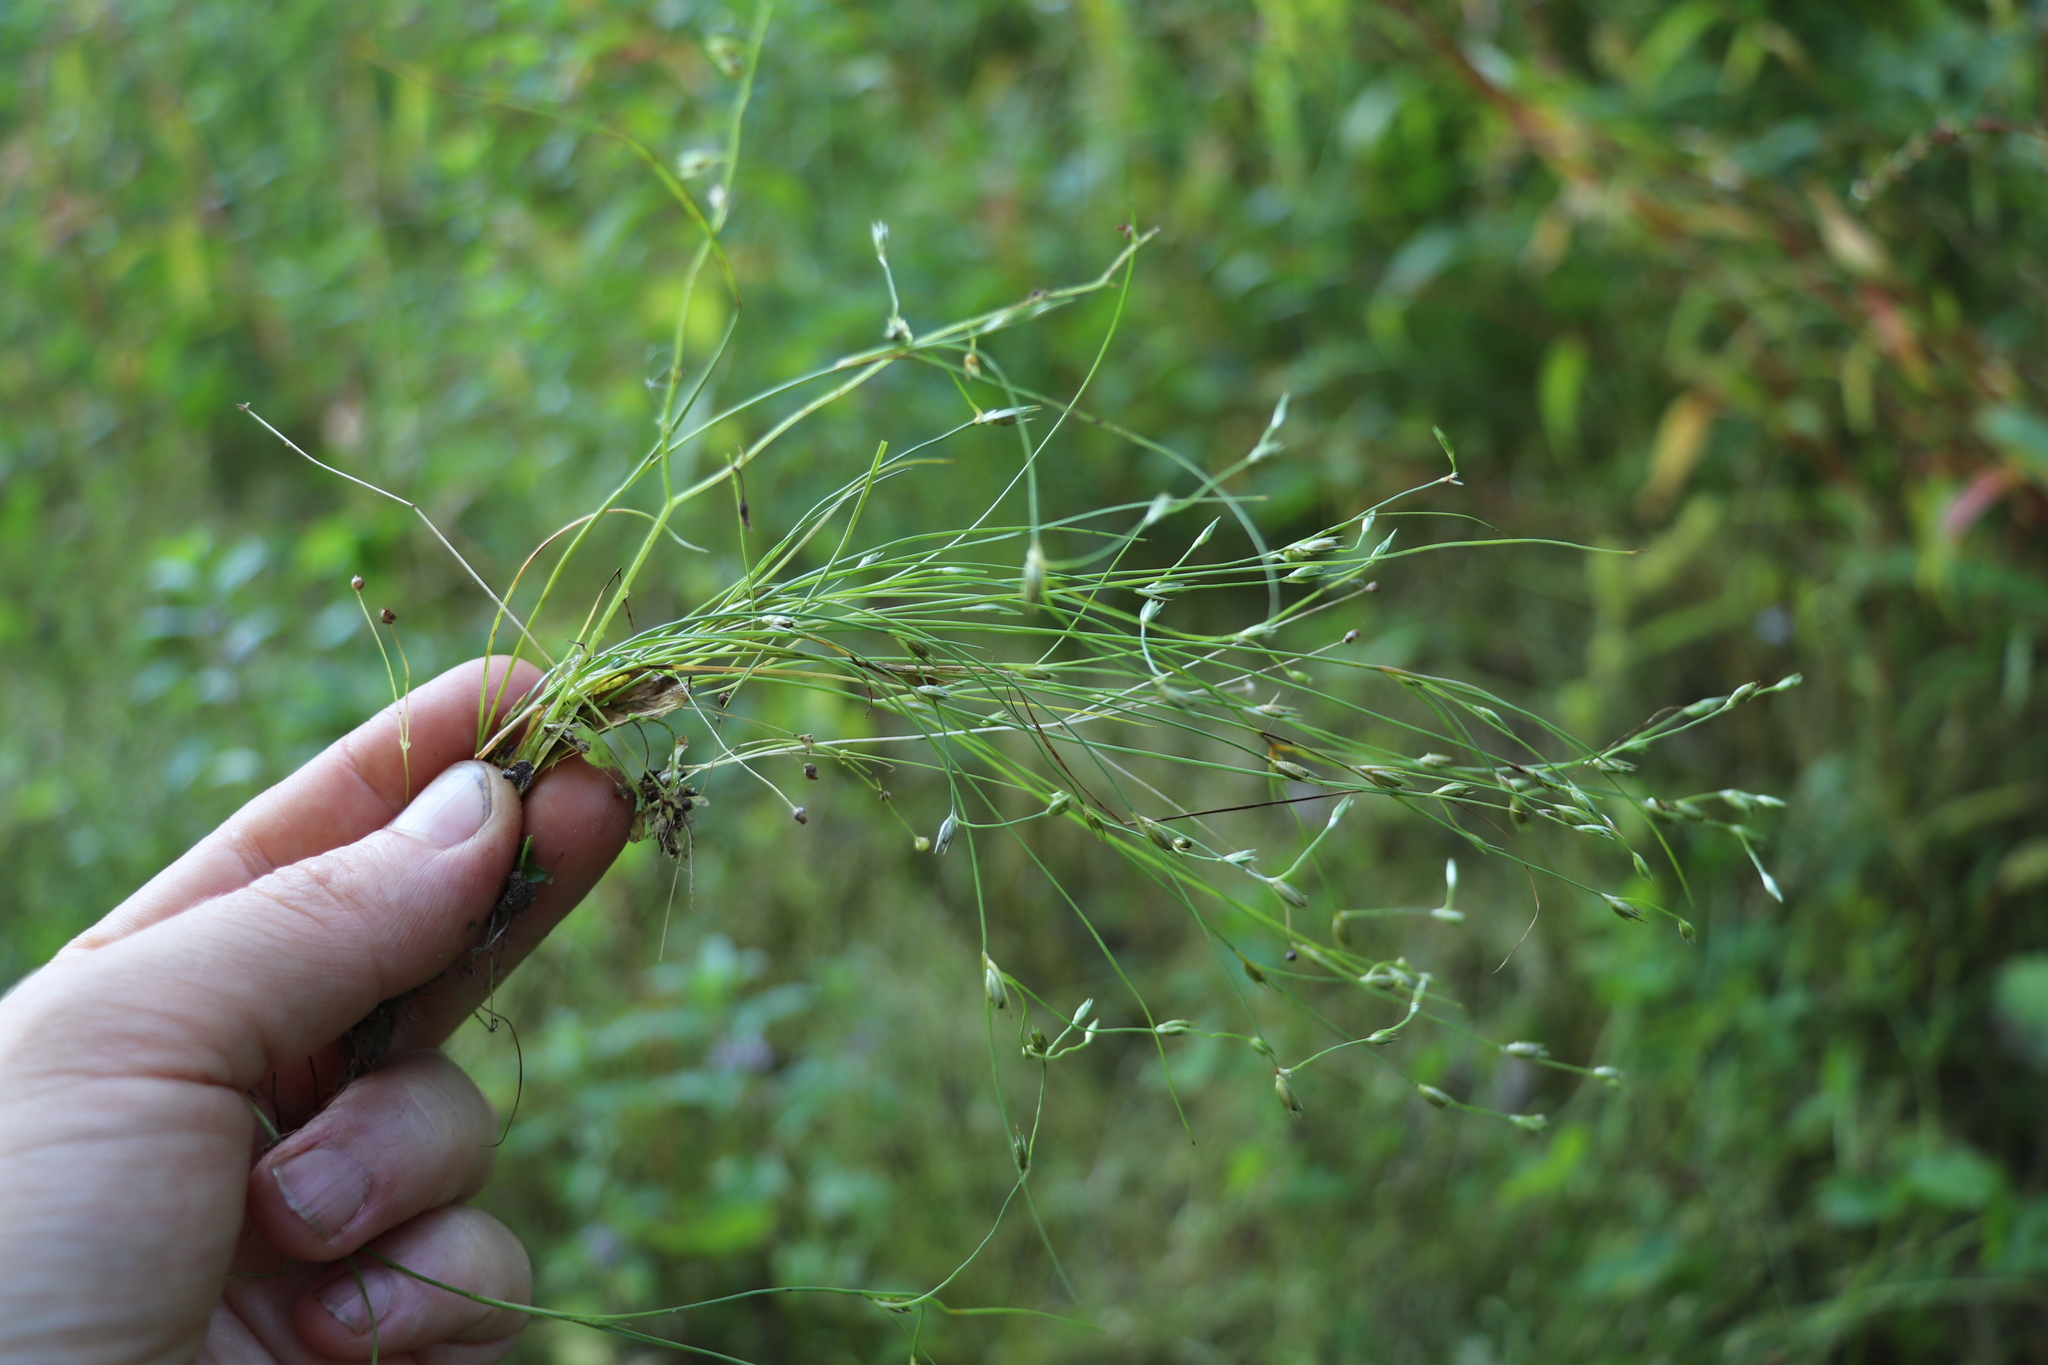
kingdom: Plantae
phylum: Tracheophyta
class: Liliopsida
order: Poales
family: Juncaceae
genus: Juncus
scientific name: Juncus bufonius
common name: Toad rush
